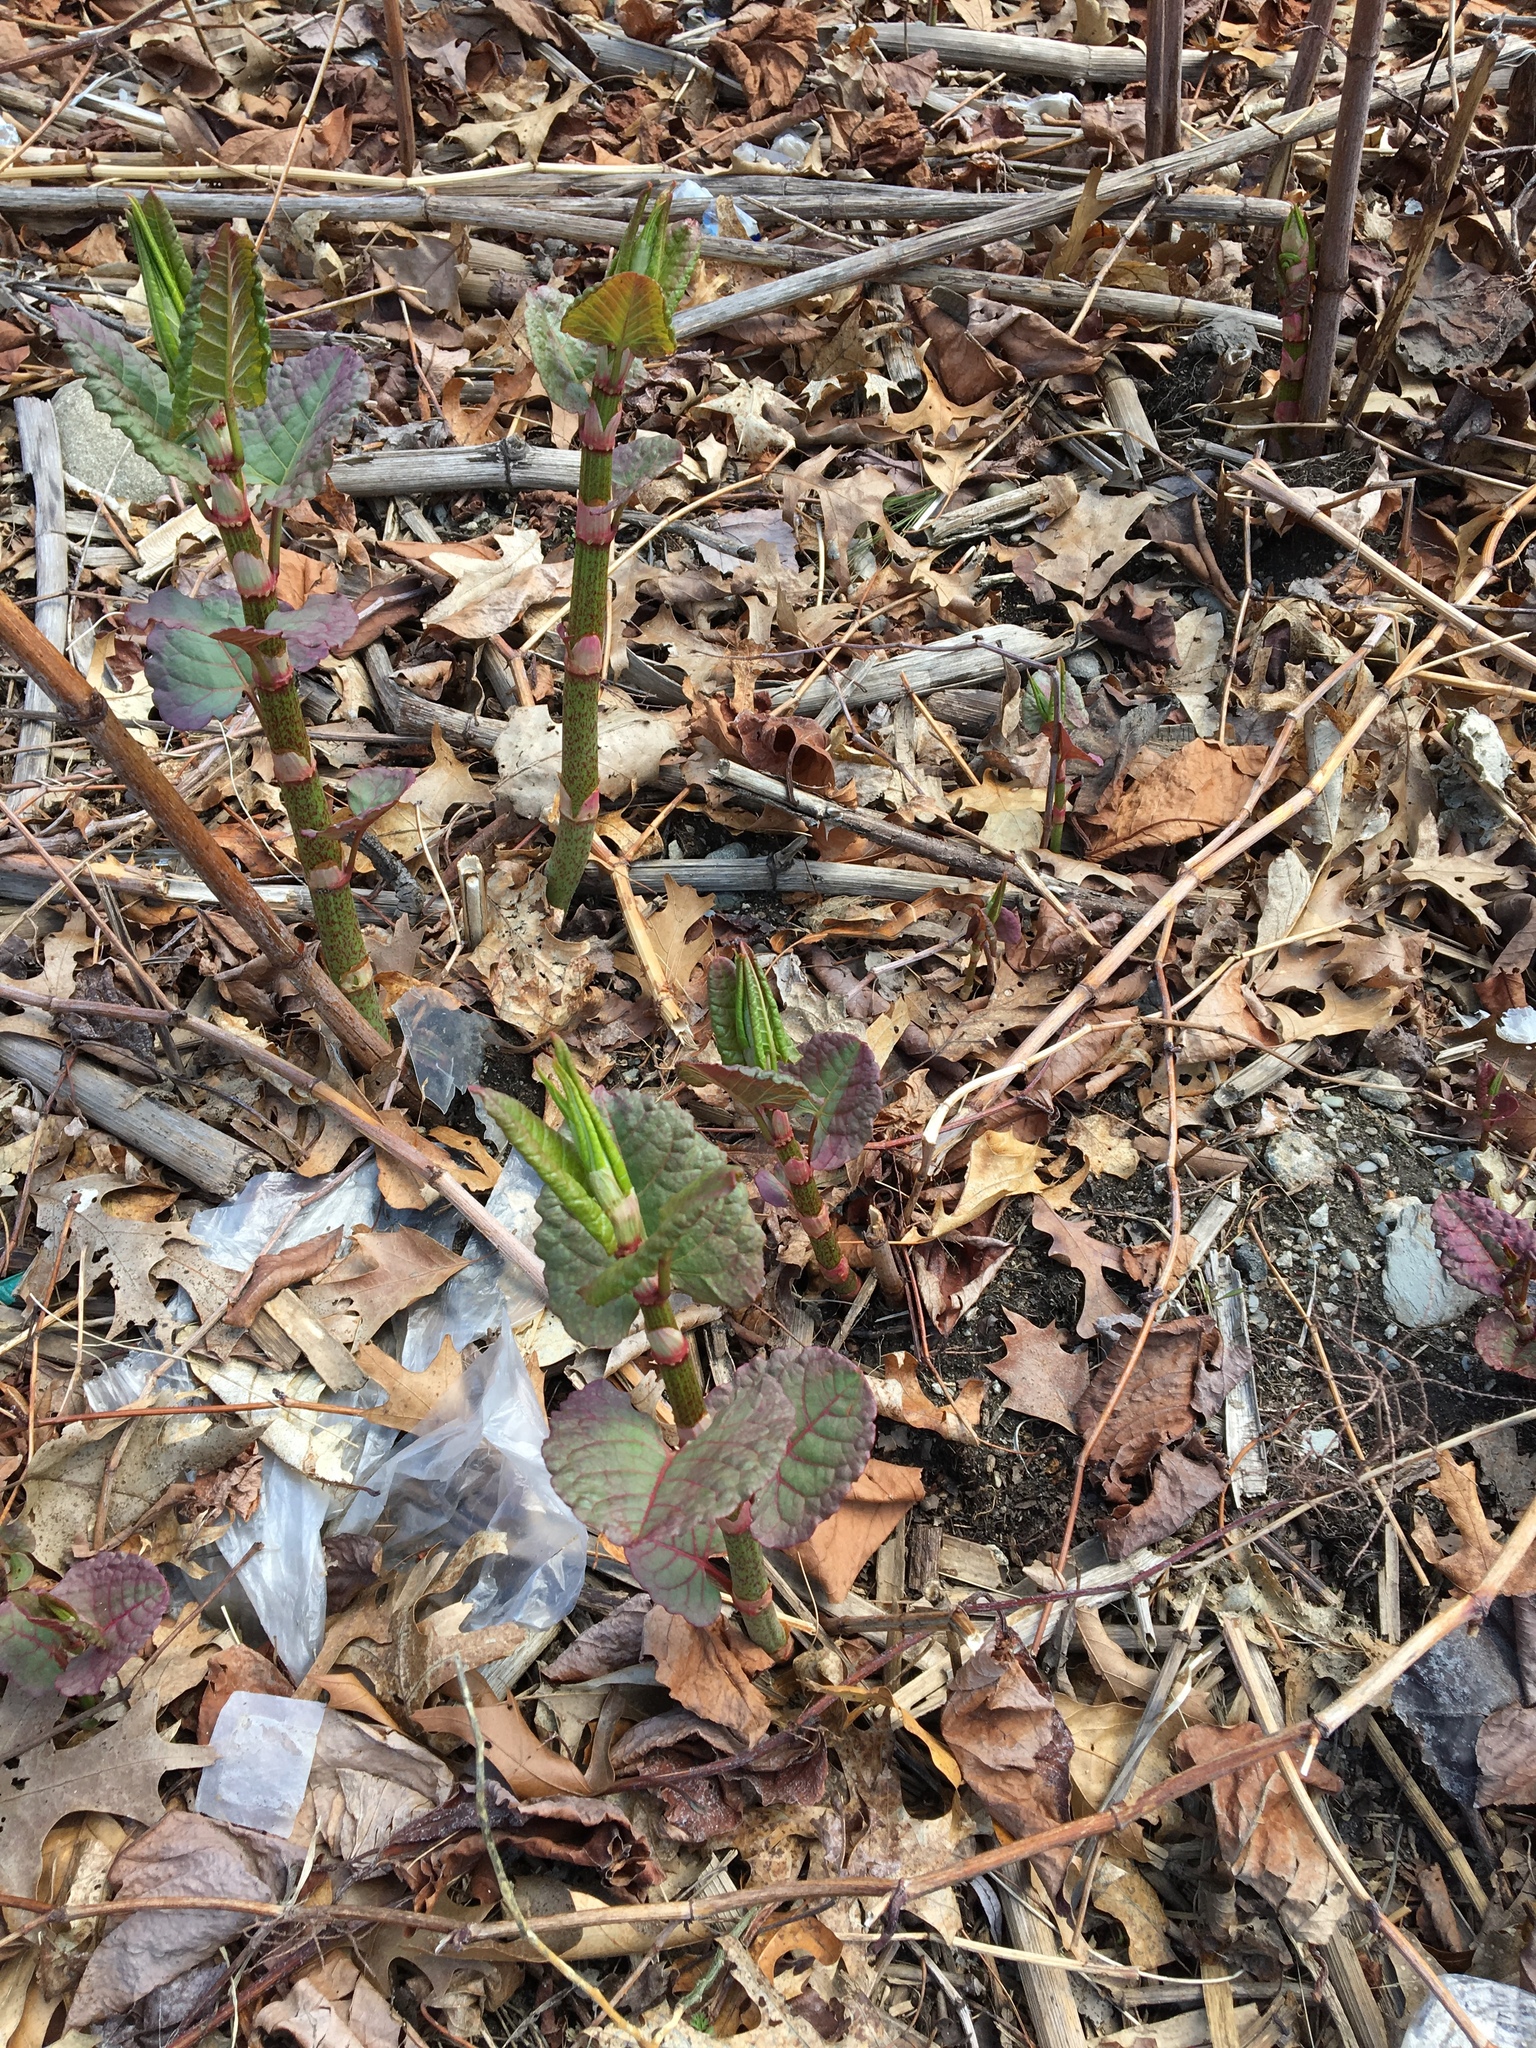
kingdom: Plantae
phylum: Tracheophyta
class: Magnoliopsida
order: Caryophyllales
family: Polygonaceae
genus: Reynoutria
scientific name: Reynoutria japonica
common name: Japanese knotweed
